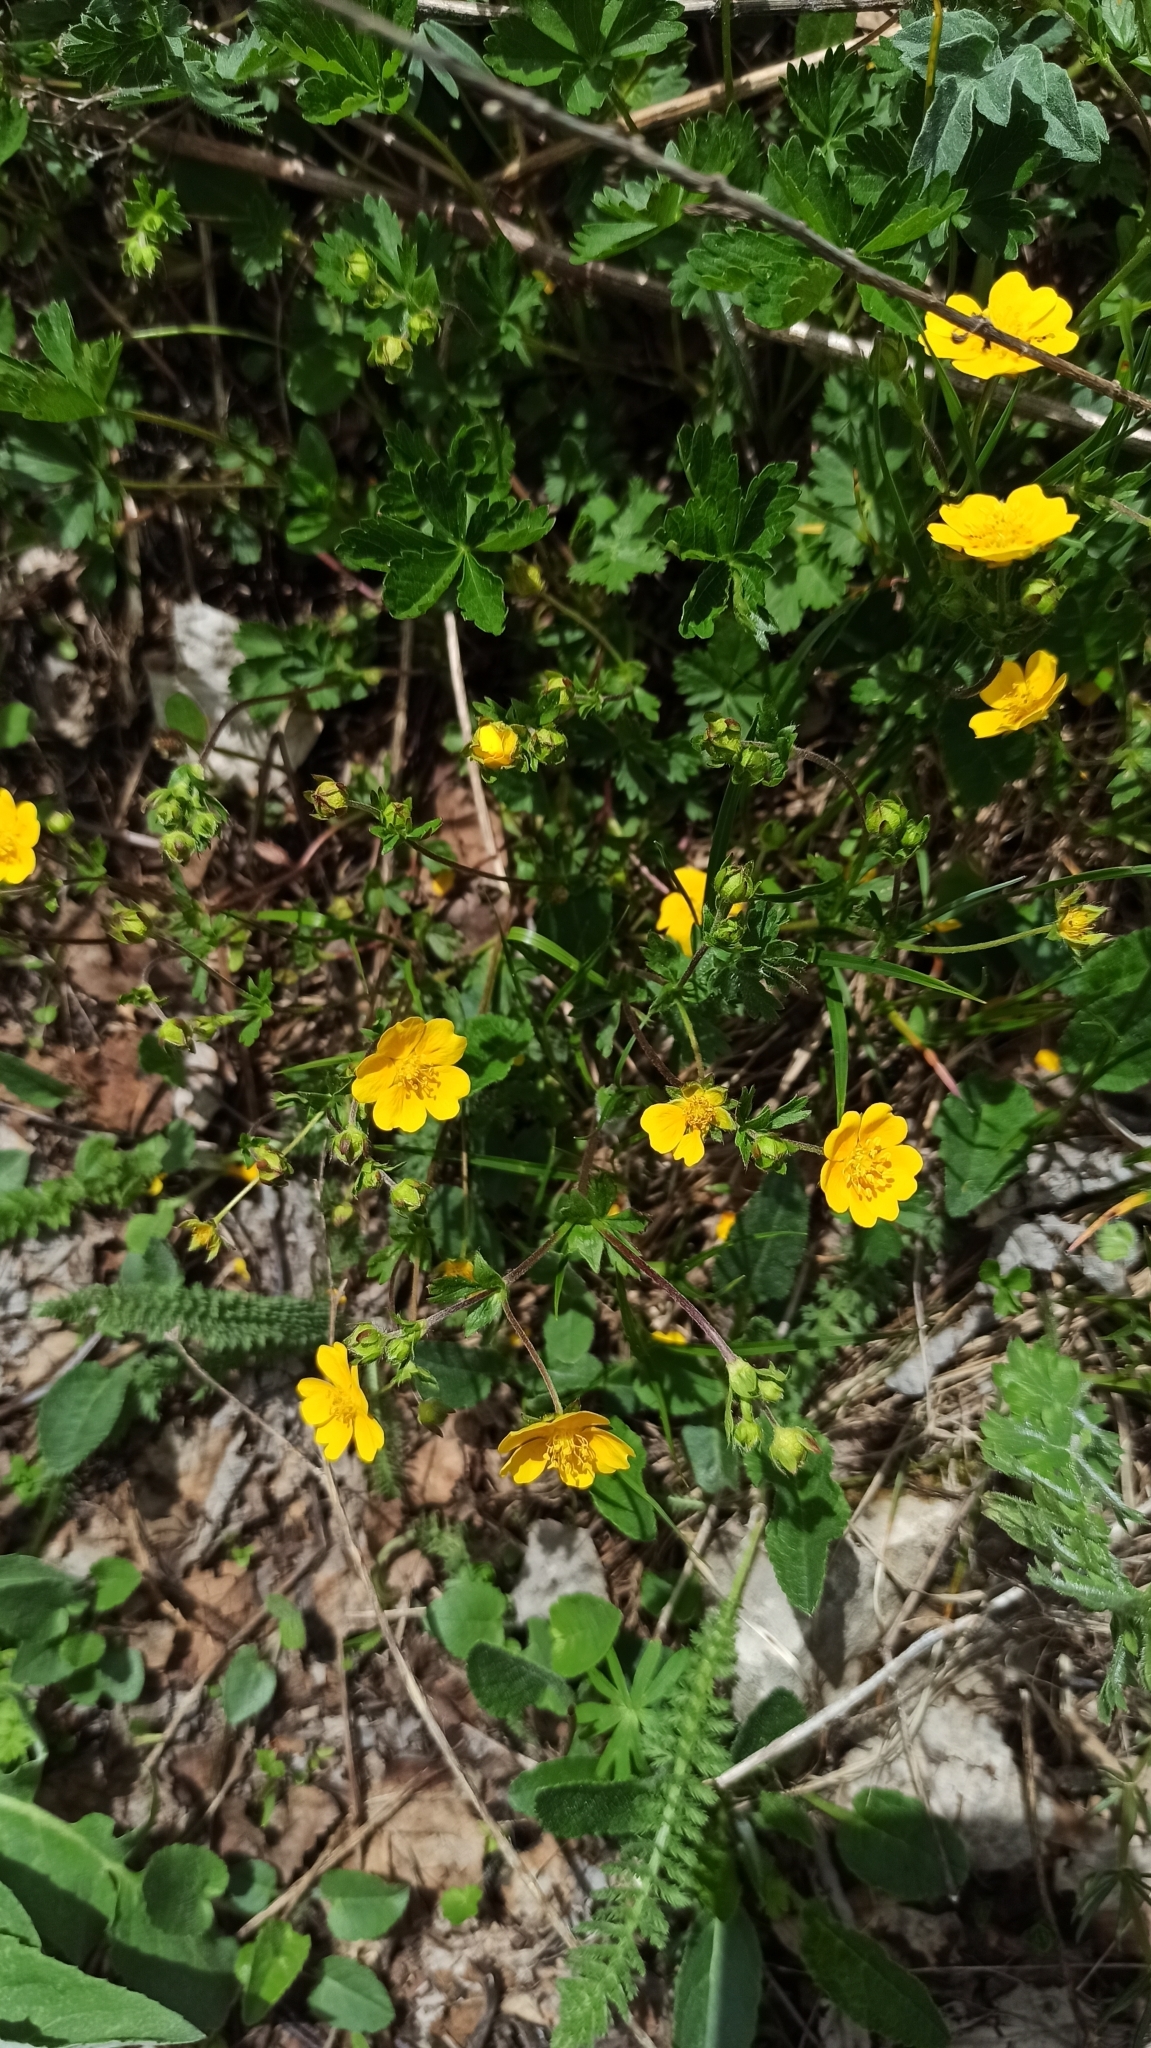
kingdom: Plantae
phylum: Tracheophyta
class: Magnoliopsida
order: Rosales
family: Rosaceae
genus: Potentilla
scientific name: Potentilla reptans
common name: Creeping cinquefoil
